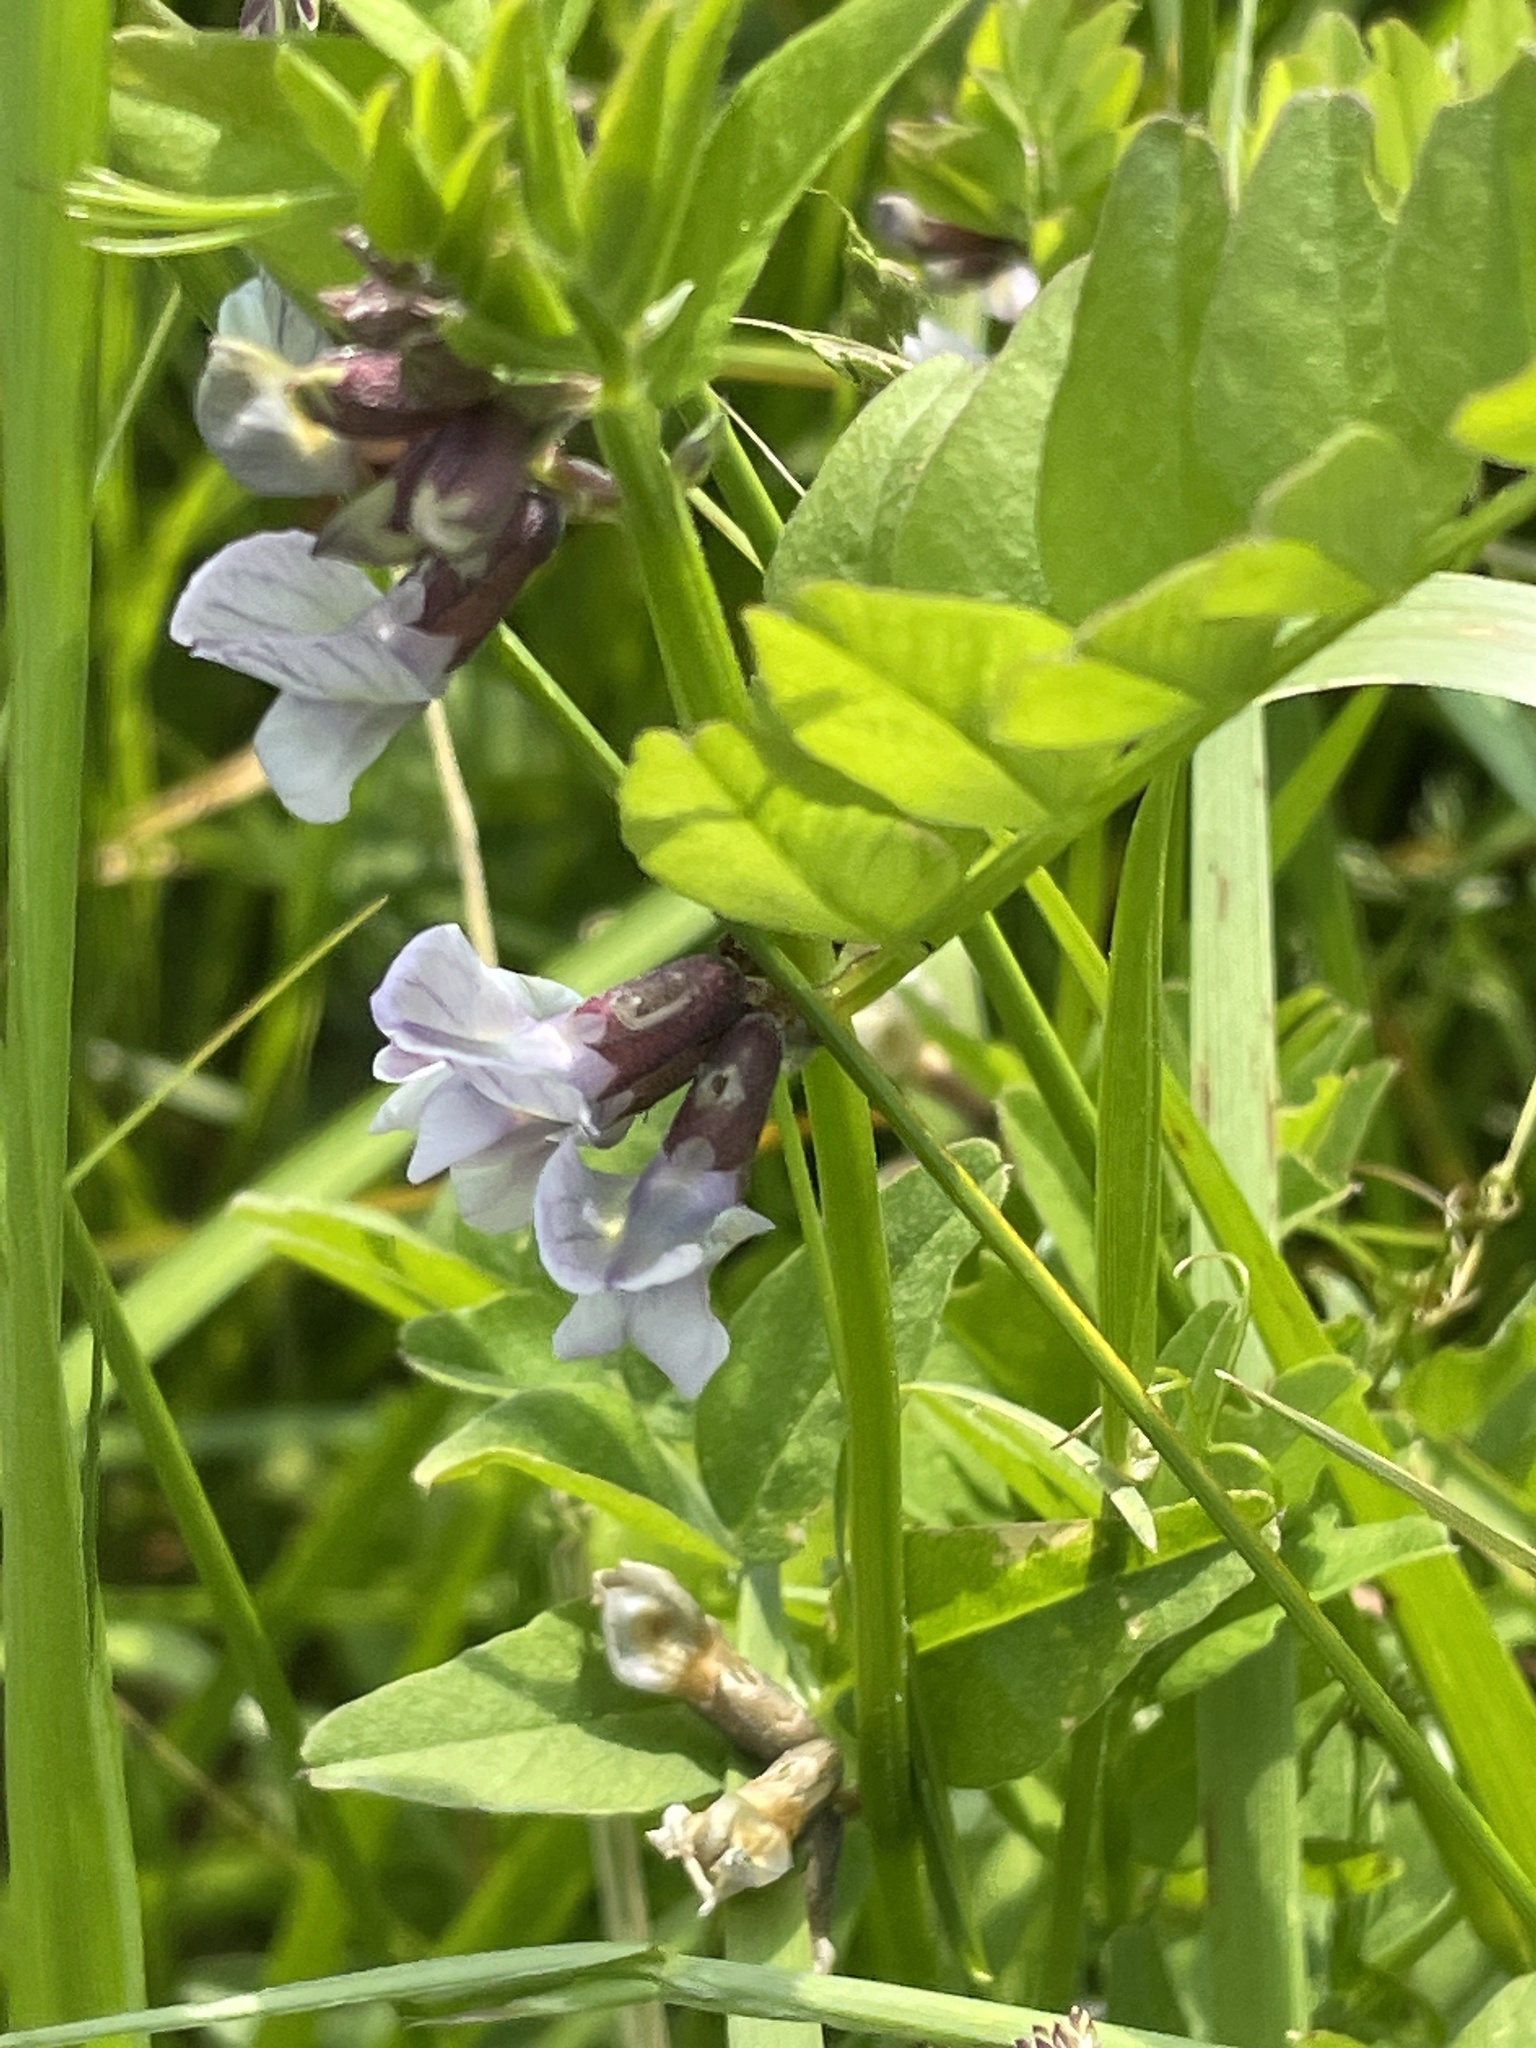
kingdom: Plantae
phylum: Tracheophyta
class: Magnoliopsida
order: Fabales
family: Fabaceae
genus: Vicia
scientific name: Vicia sepium
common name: Bush vetch
